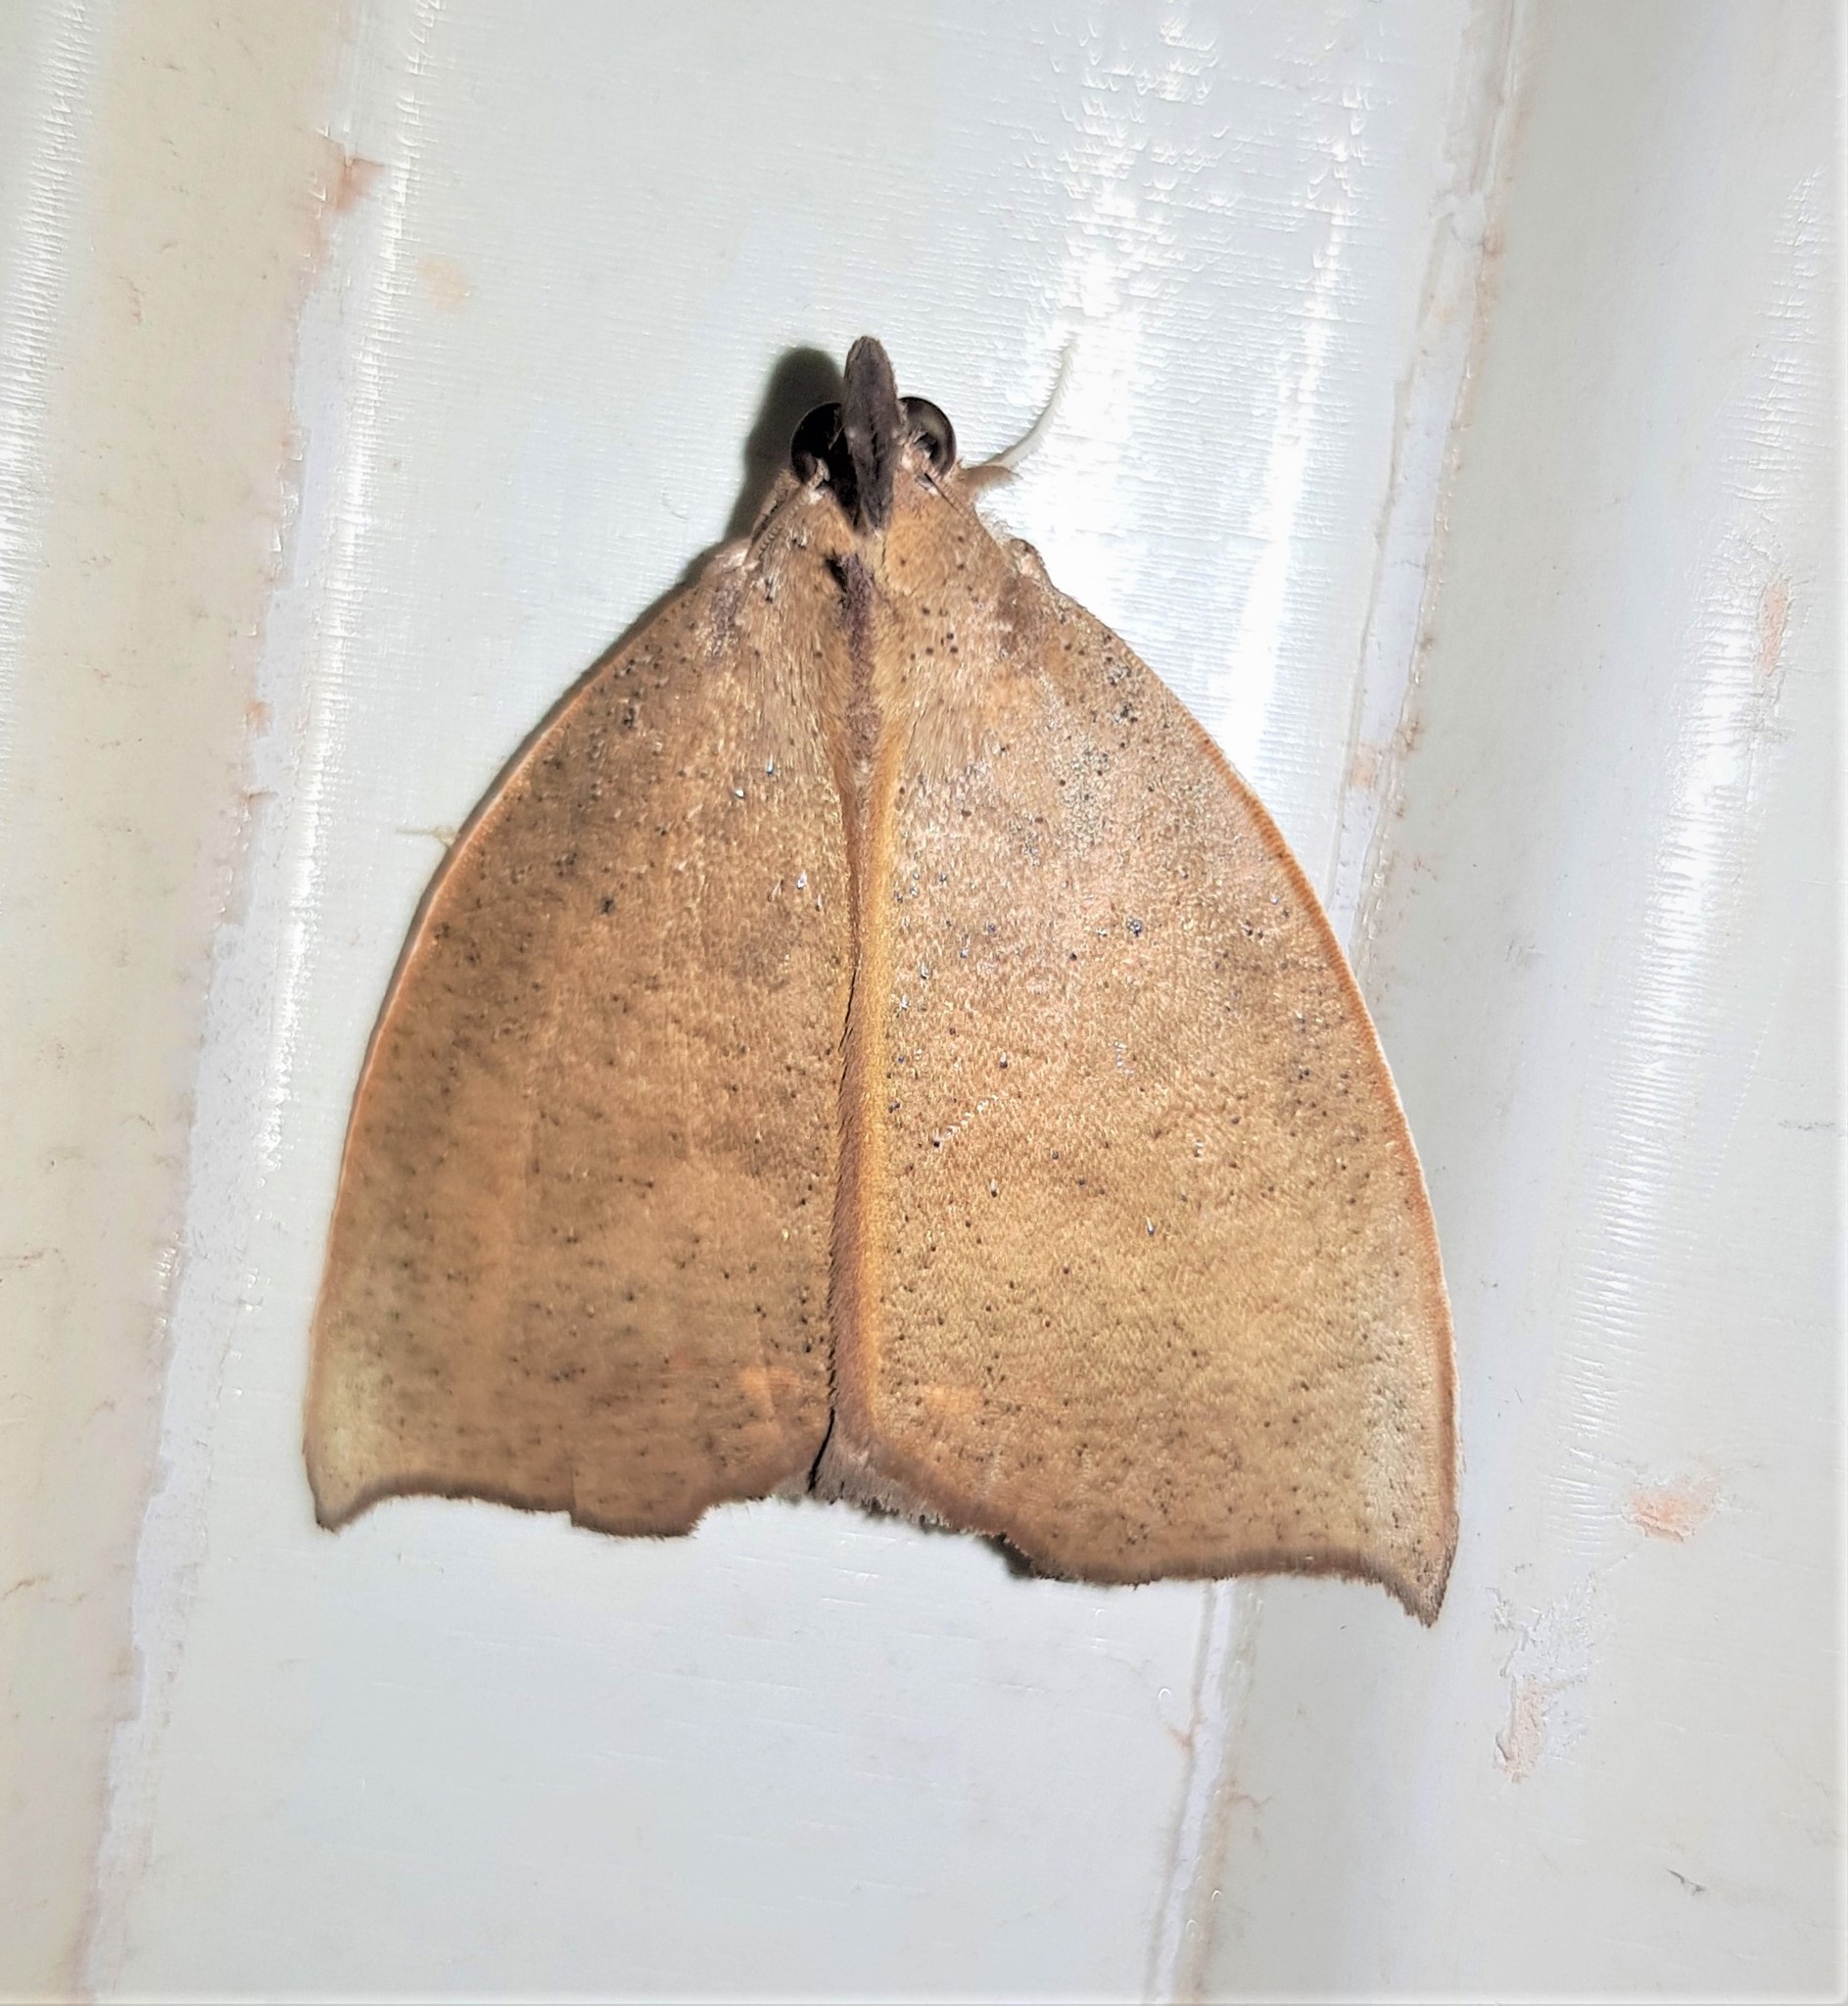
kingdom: Animalia
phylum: Arthropoda
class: Insecta
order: Lepidoptera
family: Erebidae
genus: Goniapteryx
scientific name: Goniapteryx servia
